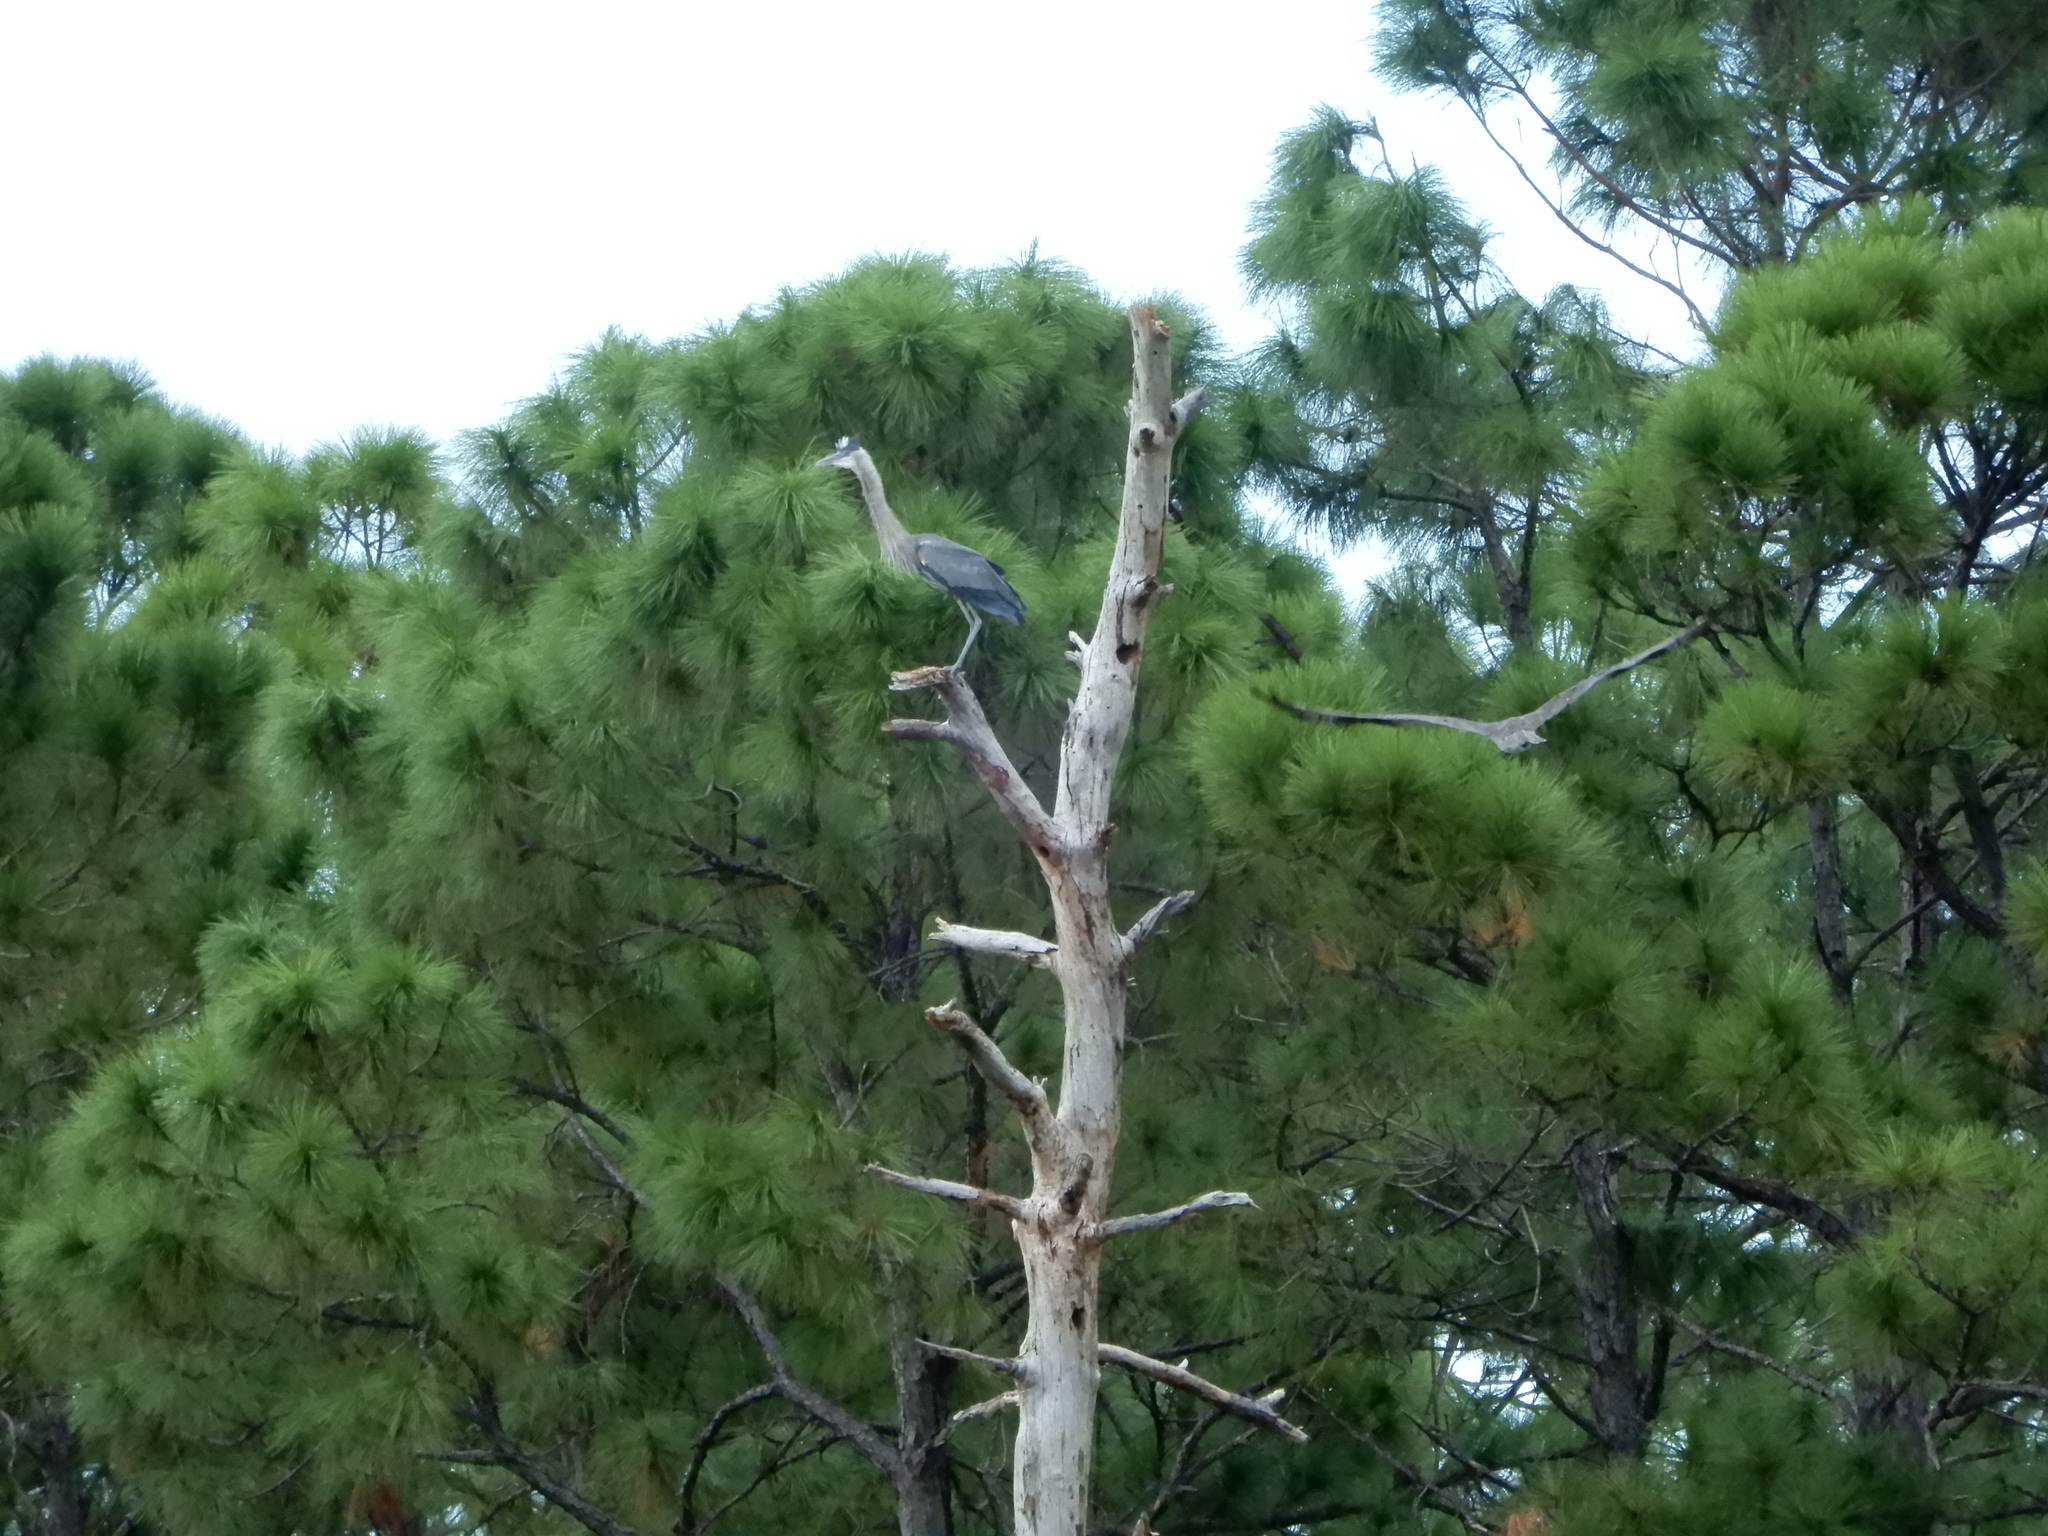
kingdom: Animalia
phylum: Chordata
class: Aves
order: Pelecaniformes
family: Ardeidae
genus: Ardea
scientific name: Ardea herodias
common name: Great blue heron
